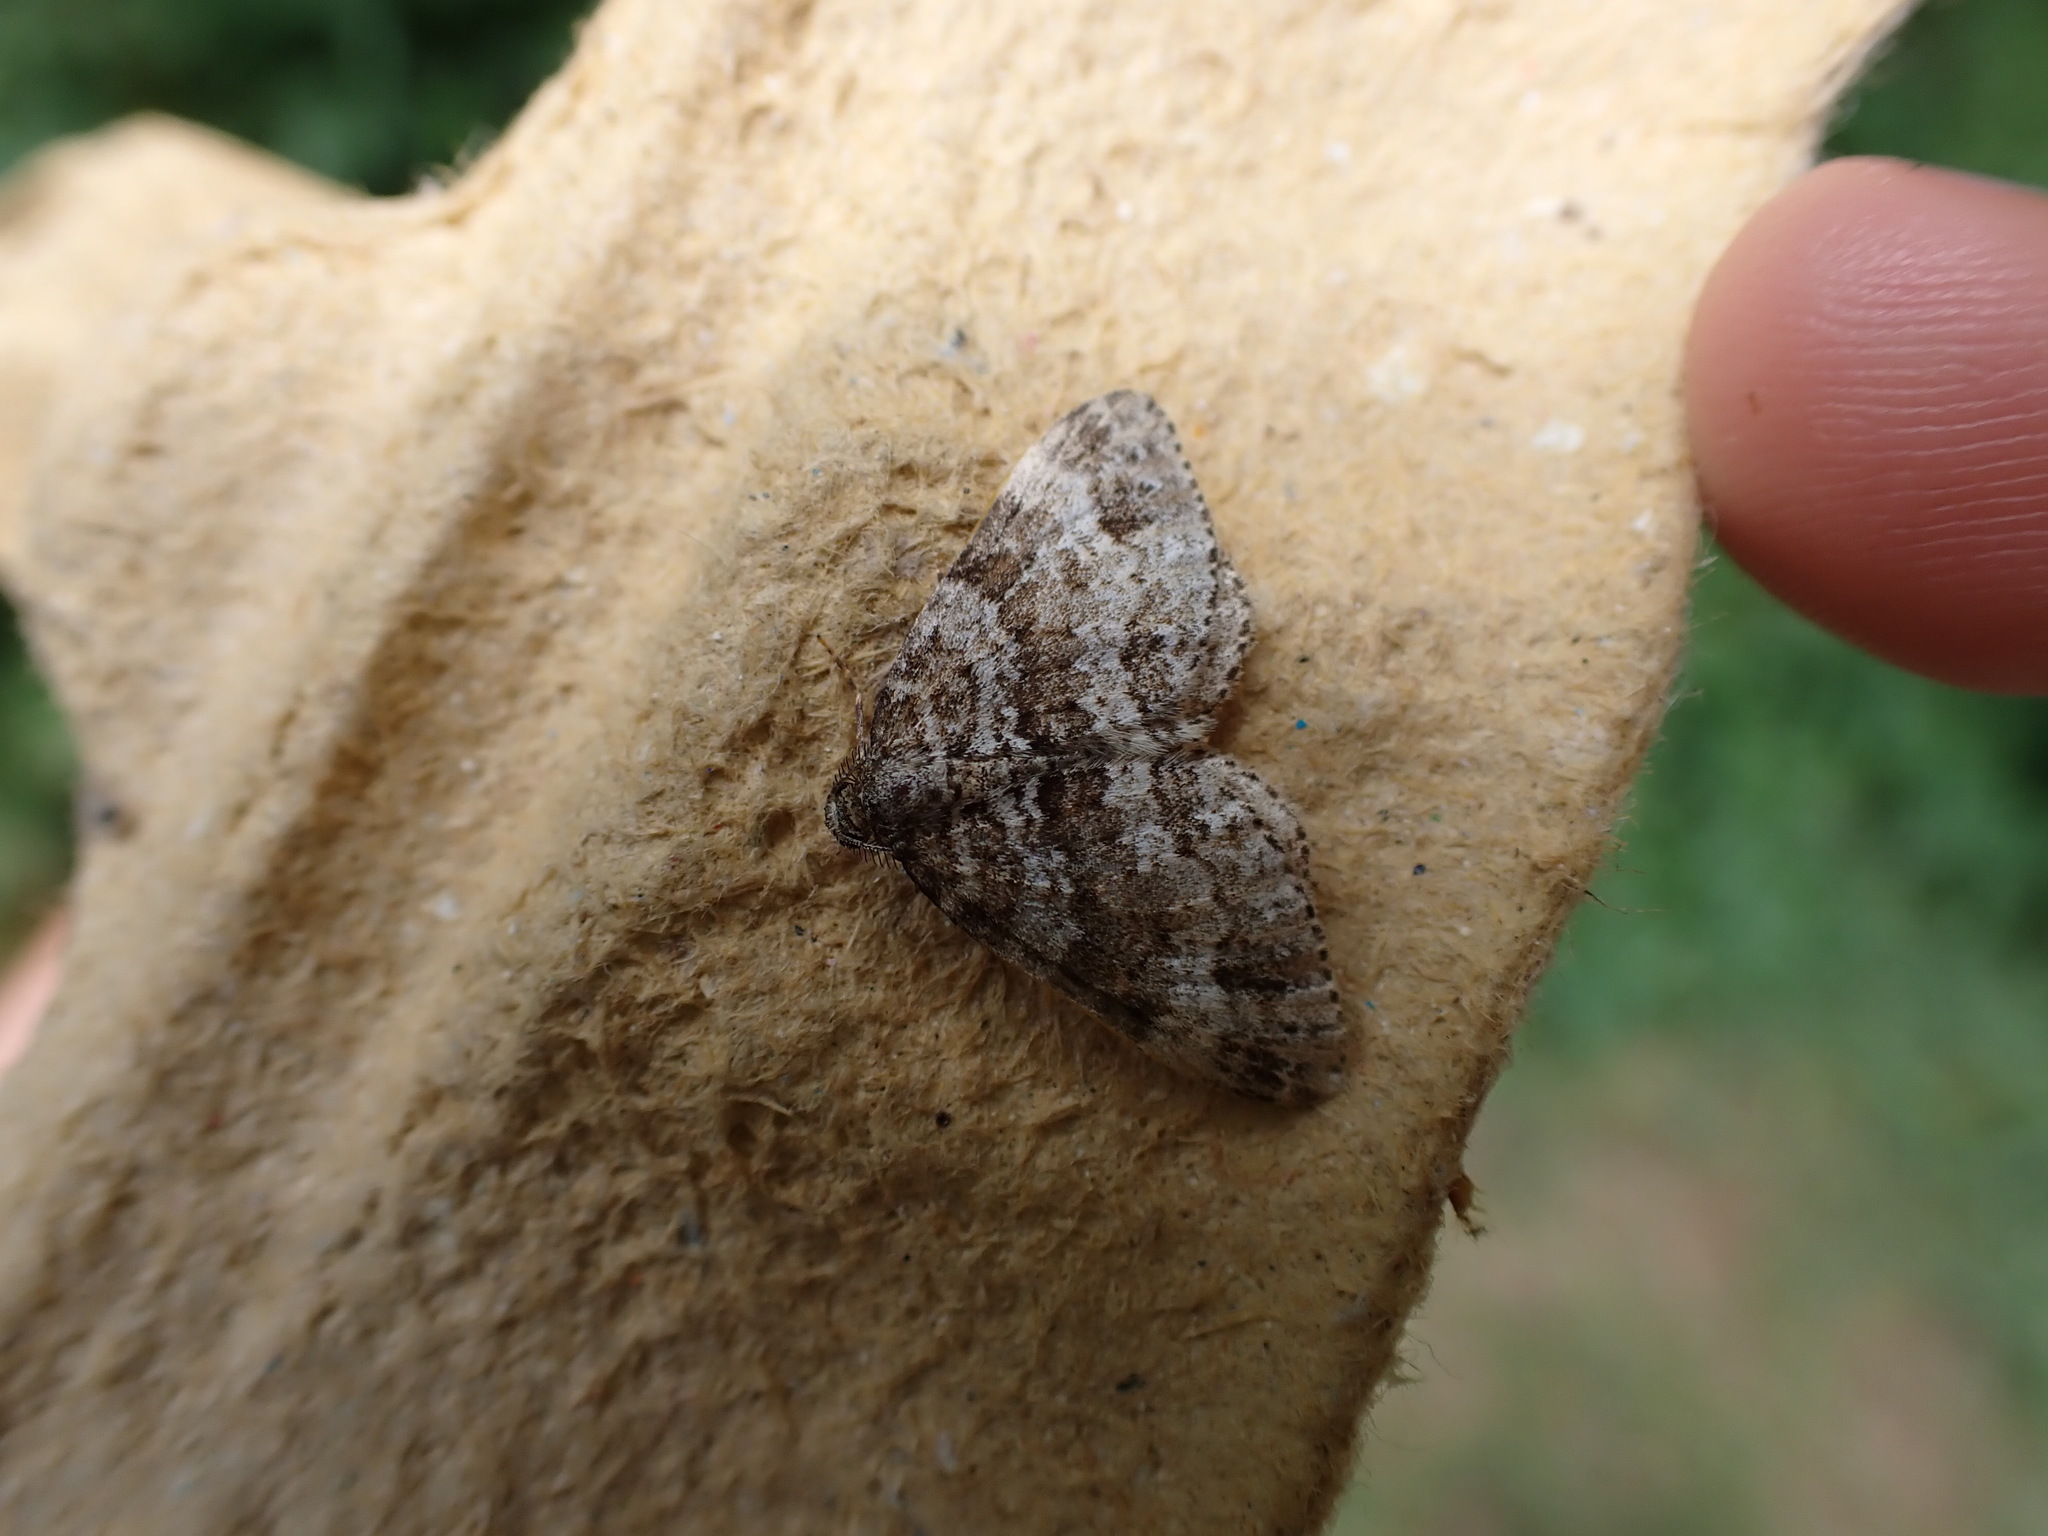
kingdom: Animalia
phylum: Arthropoda
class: Insecta
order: Lepidoptera
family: Geometridae
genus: Perizoma
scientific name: Perizoma didymata
